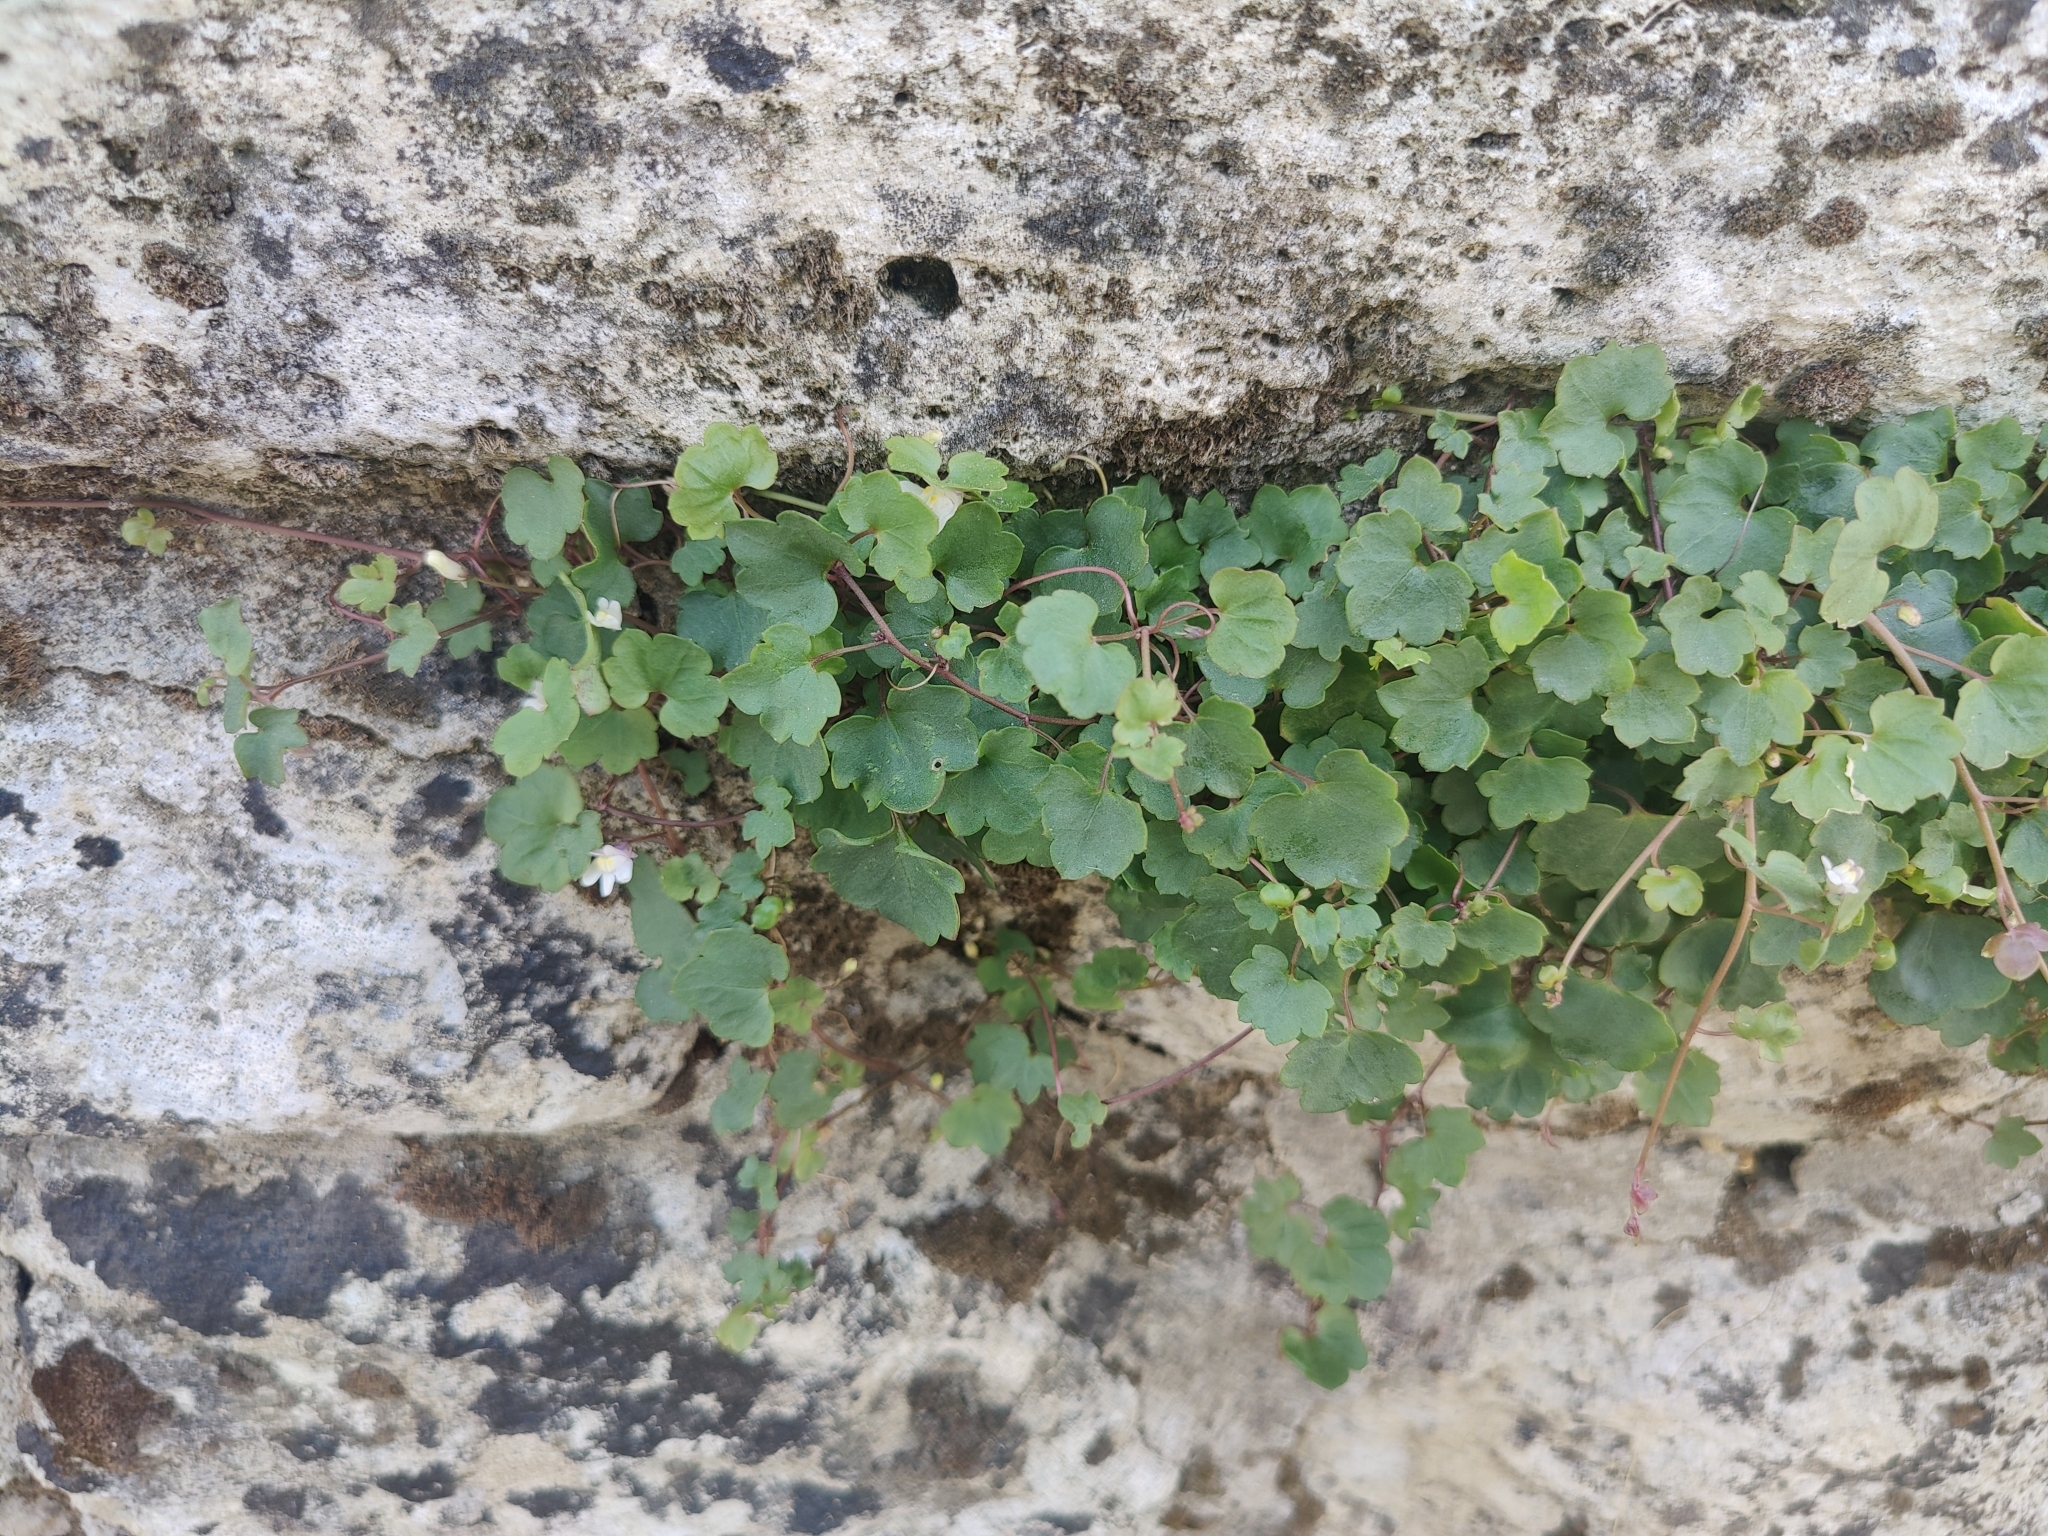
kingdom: Plantae
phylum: Tracheophyta
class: Magnoliopsida
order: Lamiales
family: Plantaginaceae
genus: Cymbalaria
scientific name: Cymbalaria muralis
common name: Ivy-leaved toadflax
